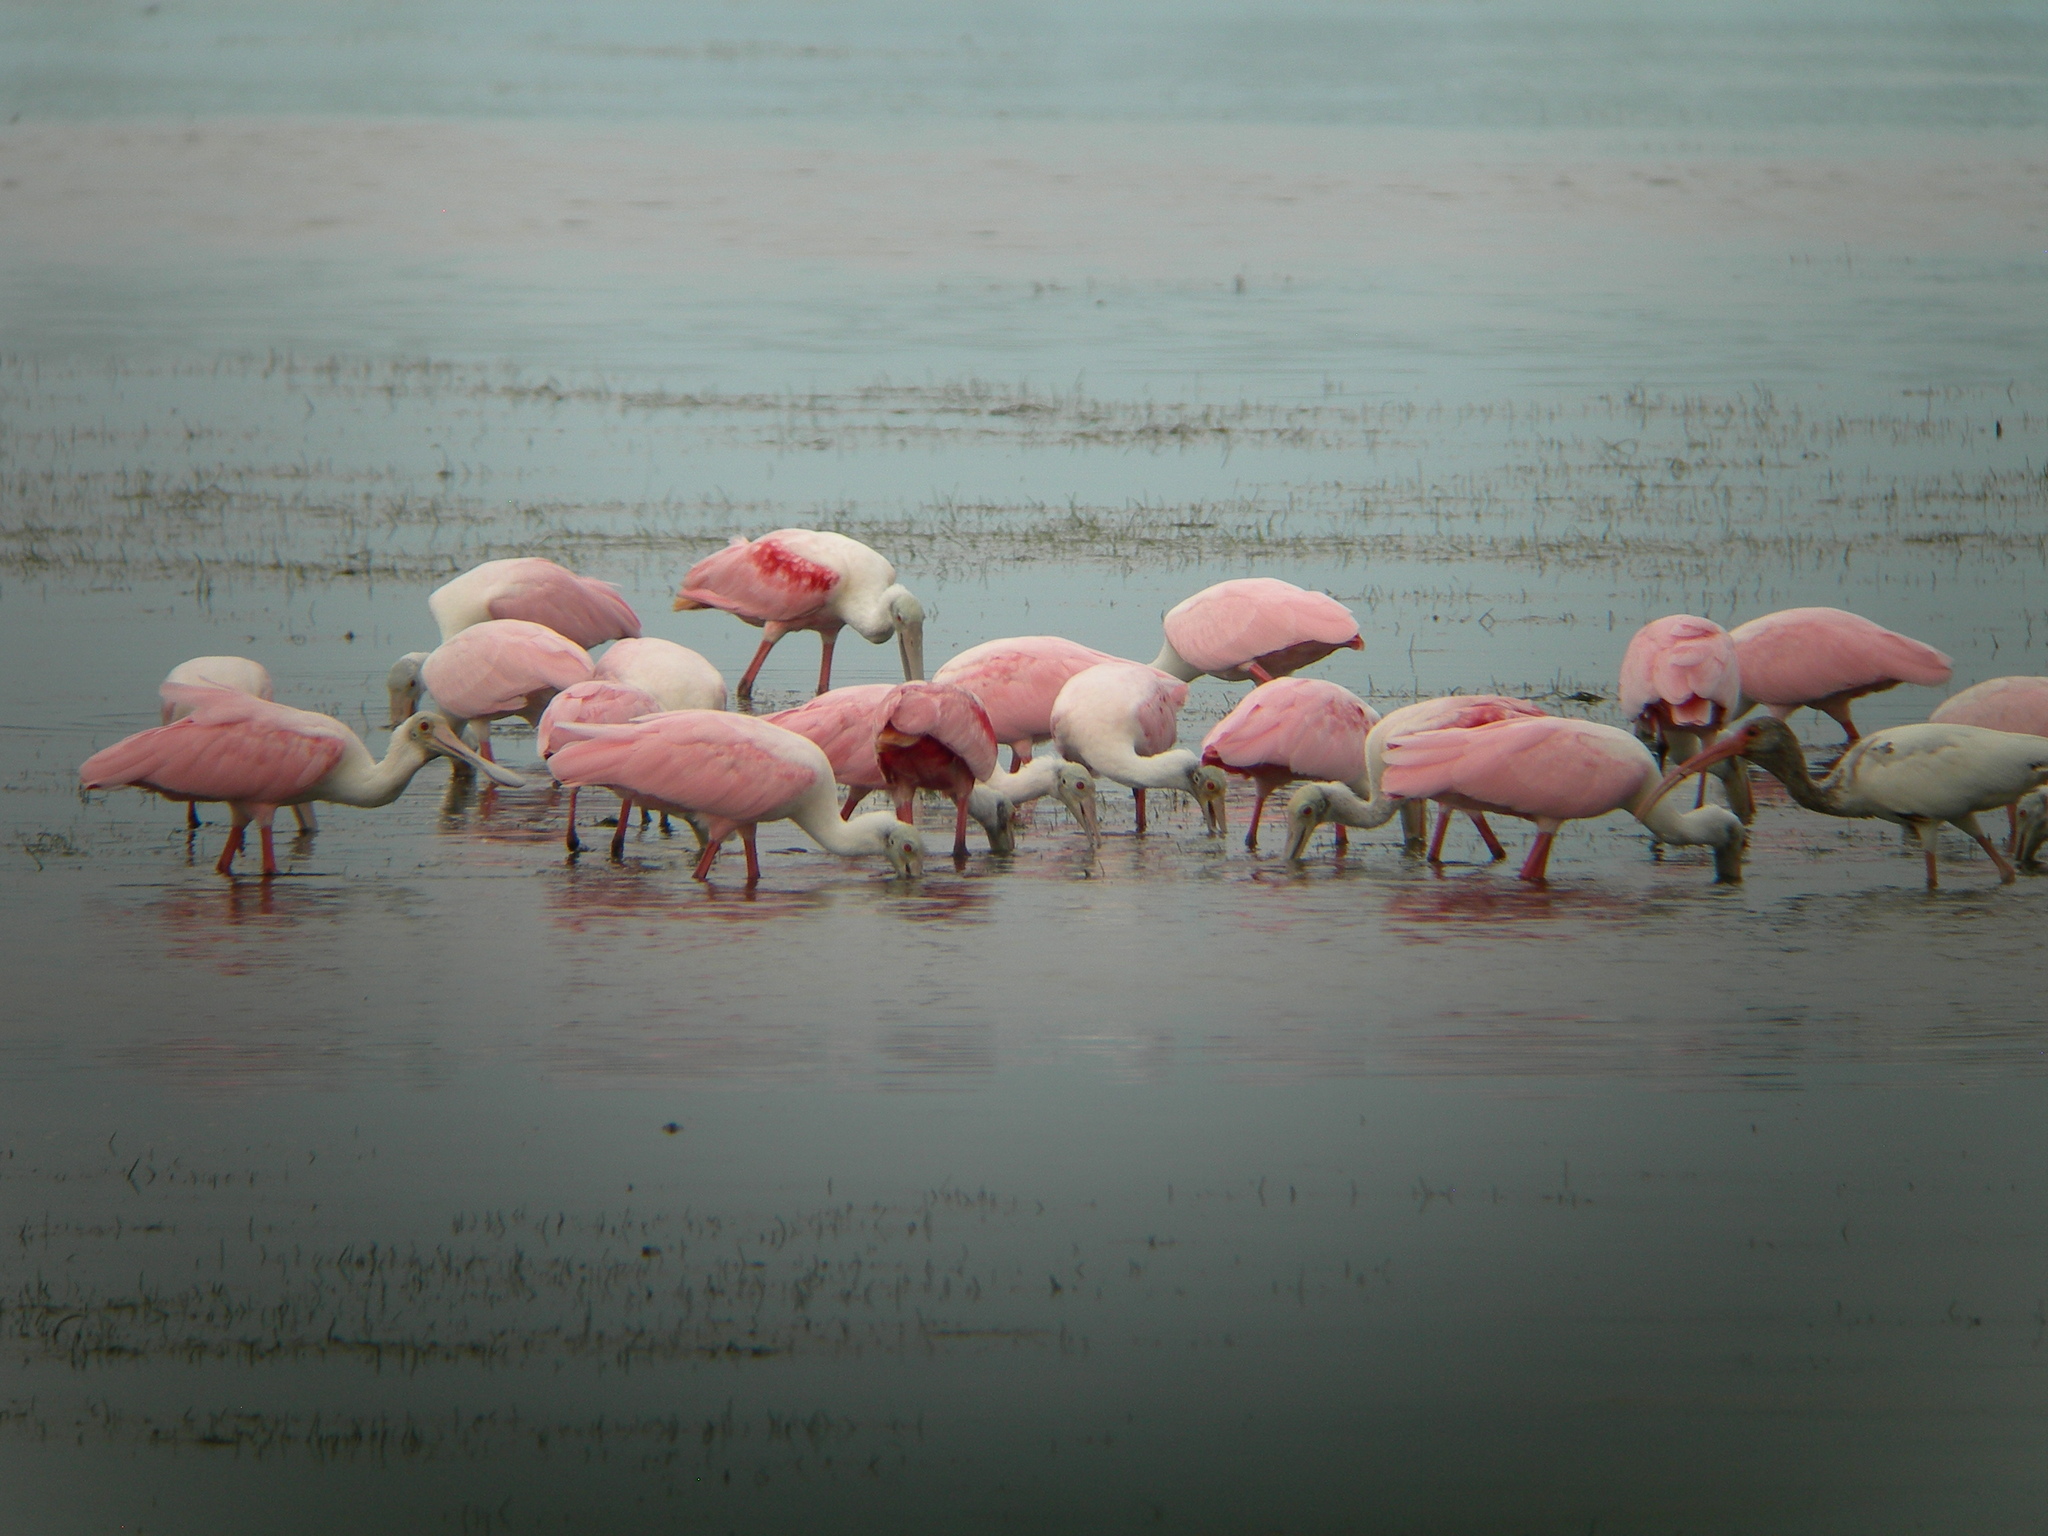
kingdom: Animalia
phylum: Chordata
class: Aves
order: Pelecaniformes
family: Threskiornithidae
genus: Platalea
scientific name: Platalea ajaja
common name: Roseate spoonbill
